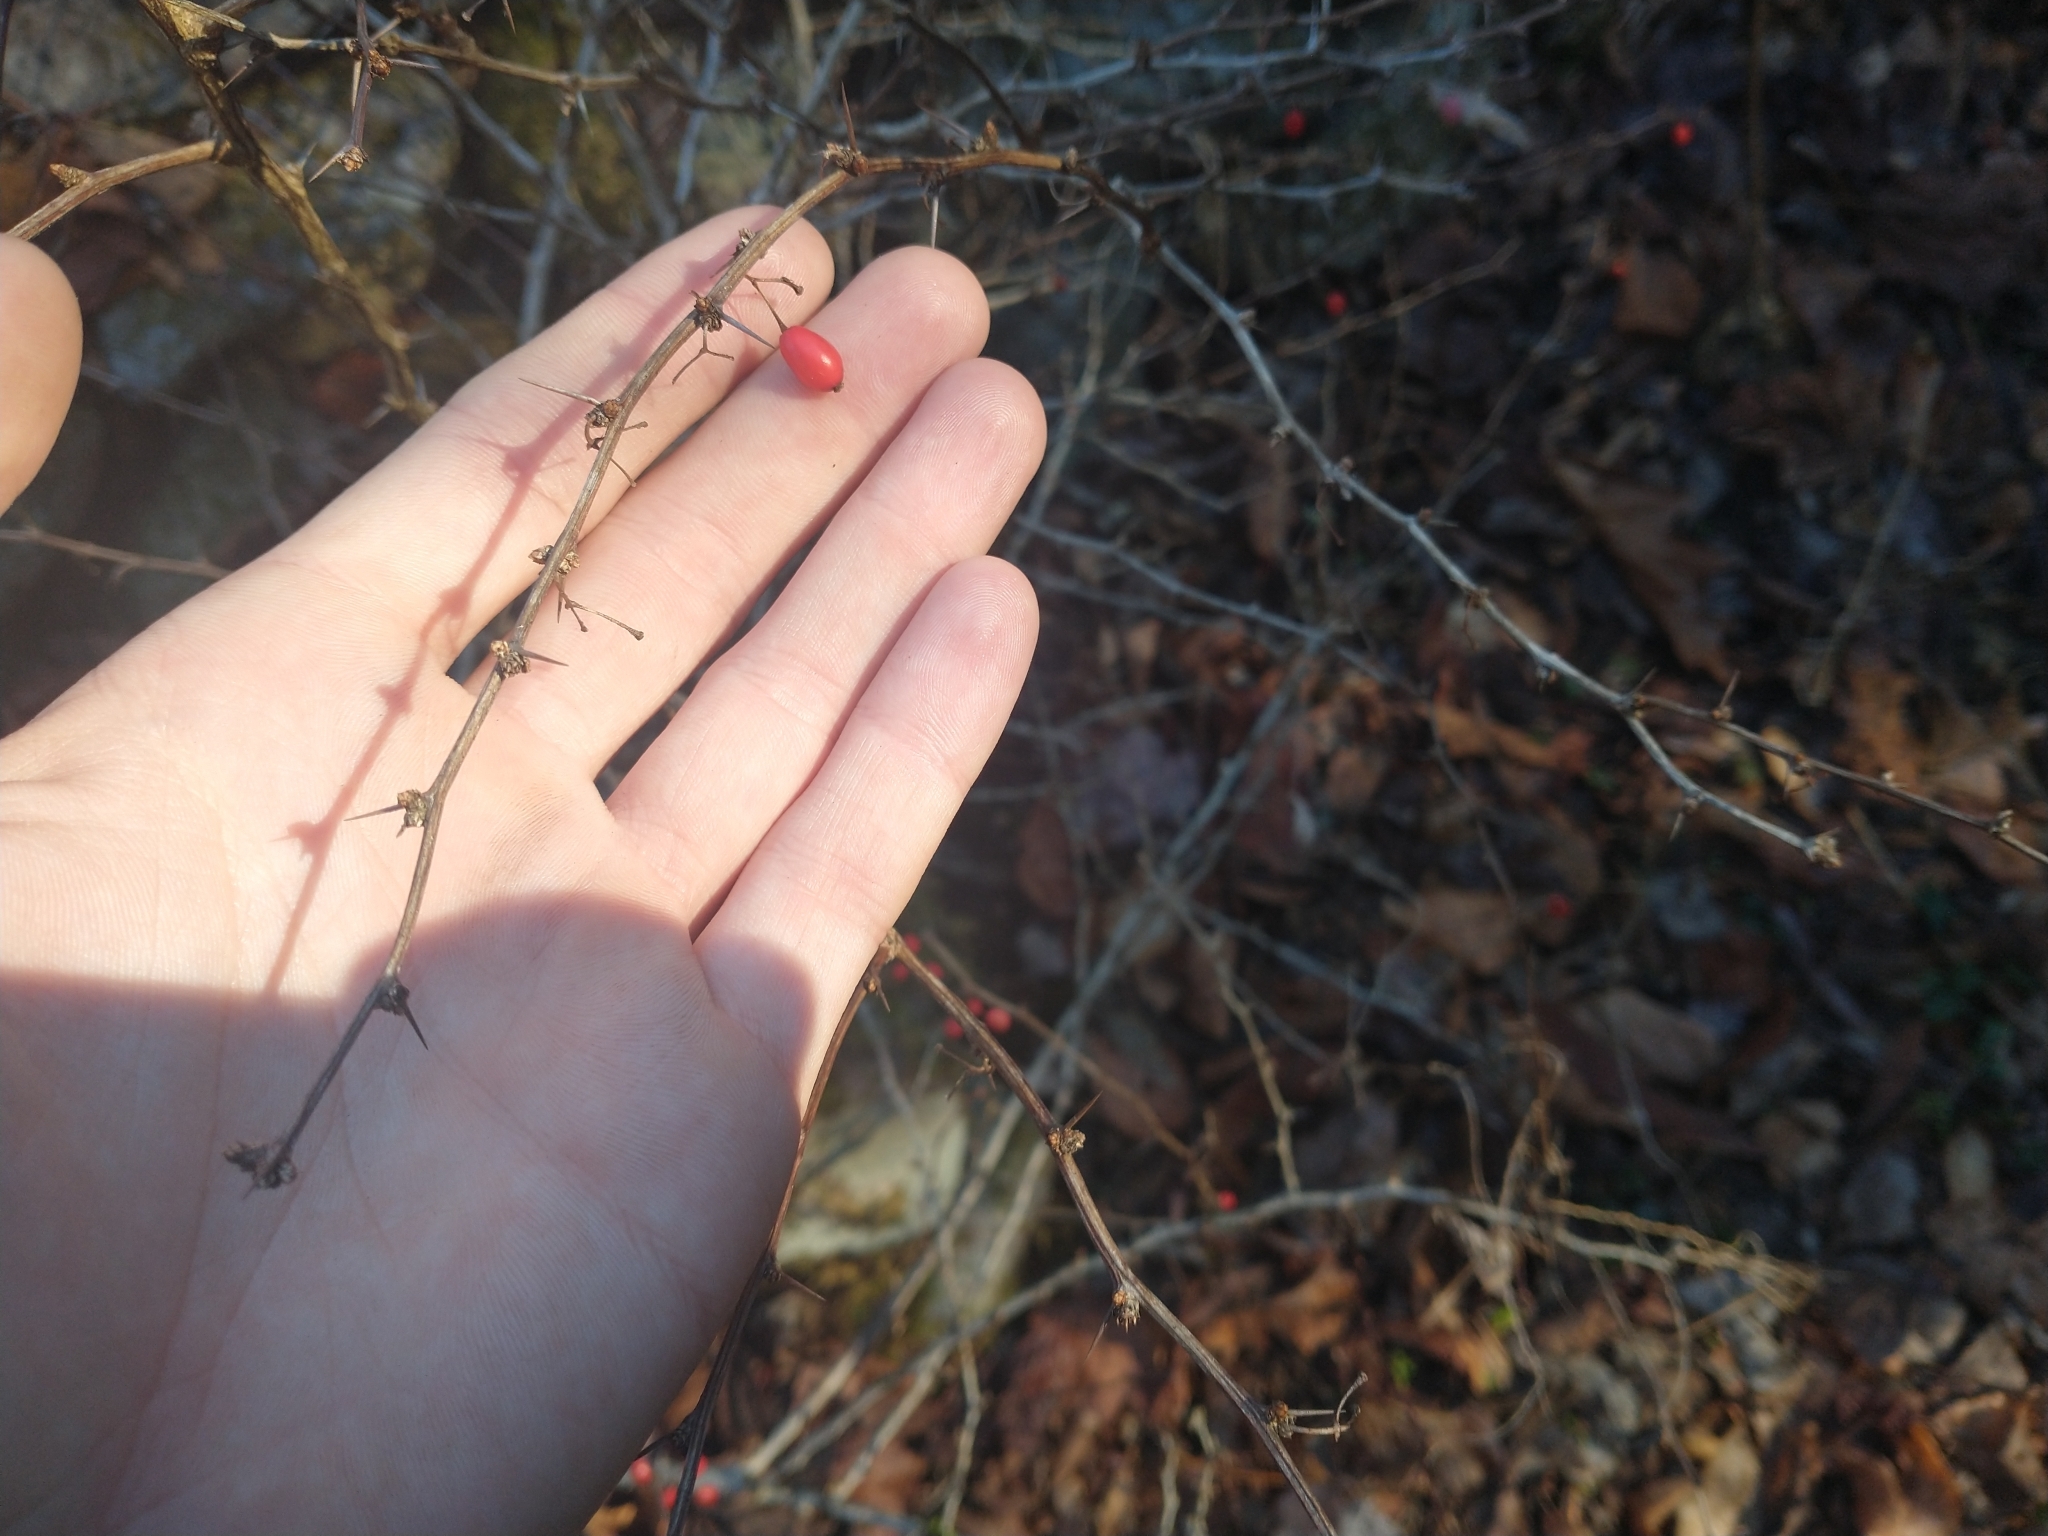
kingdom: Plantae
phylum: Tracheophyta
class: Magnoliopsida
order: Ranunculales
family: Berberidaceae
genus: Berberis
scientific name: Berberis thunbergii
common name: Japanese barberry
